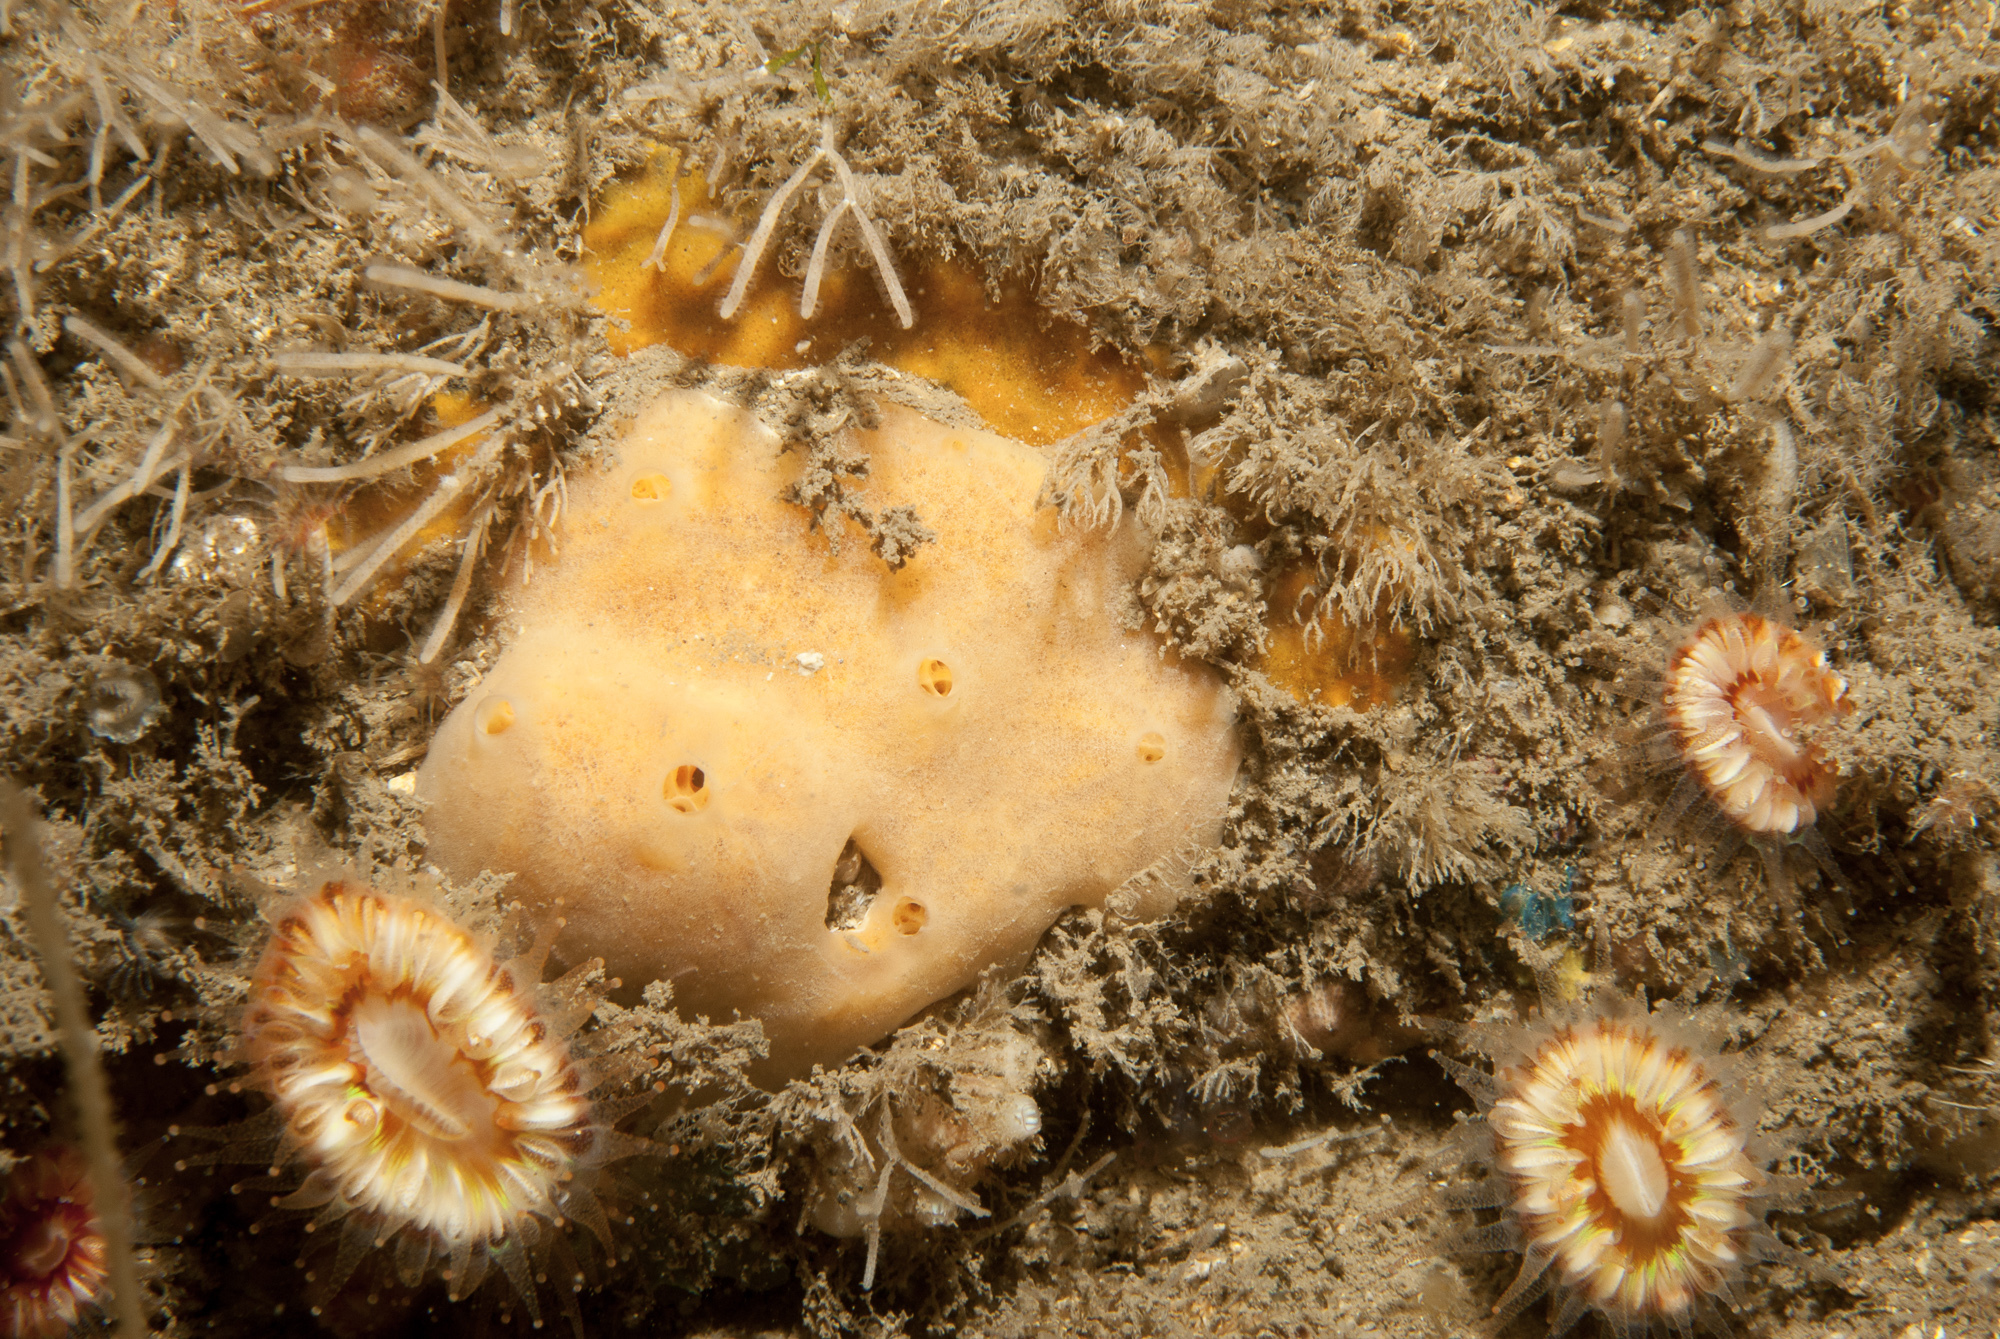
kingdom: Animalia
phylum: Porifera
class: Demospongiae
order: Poecilosclerida
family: Myxillidae
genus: Myxilla
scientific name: Myxilla fimbriata
